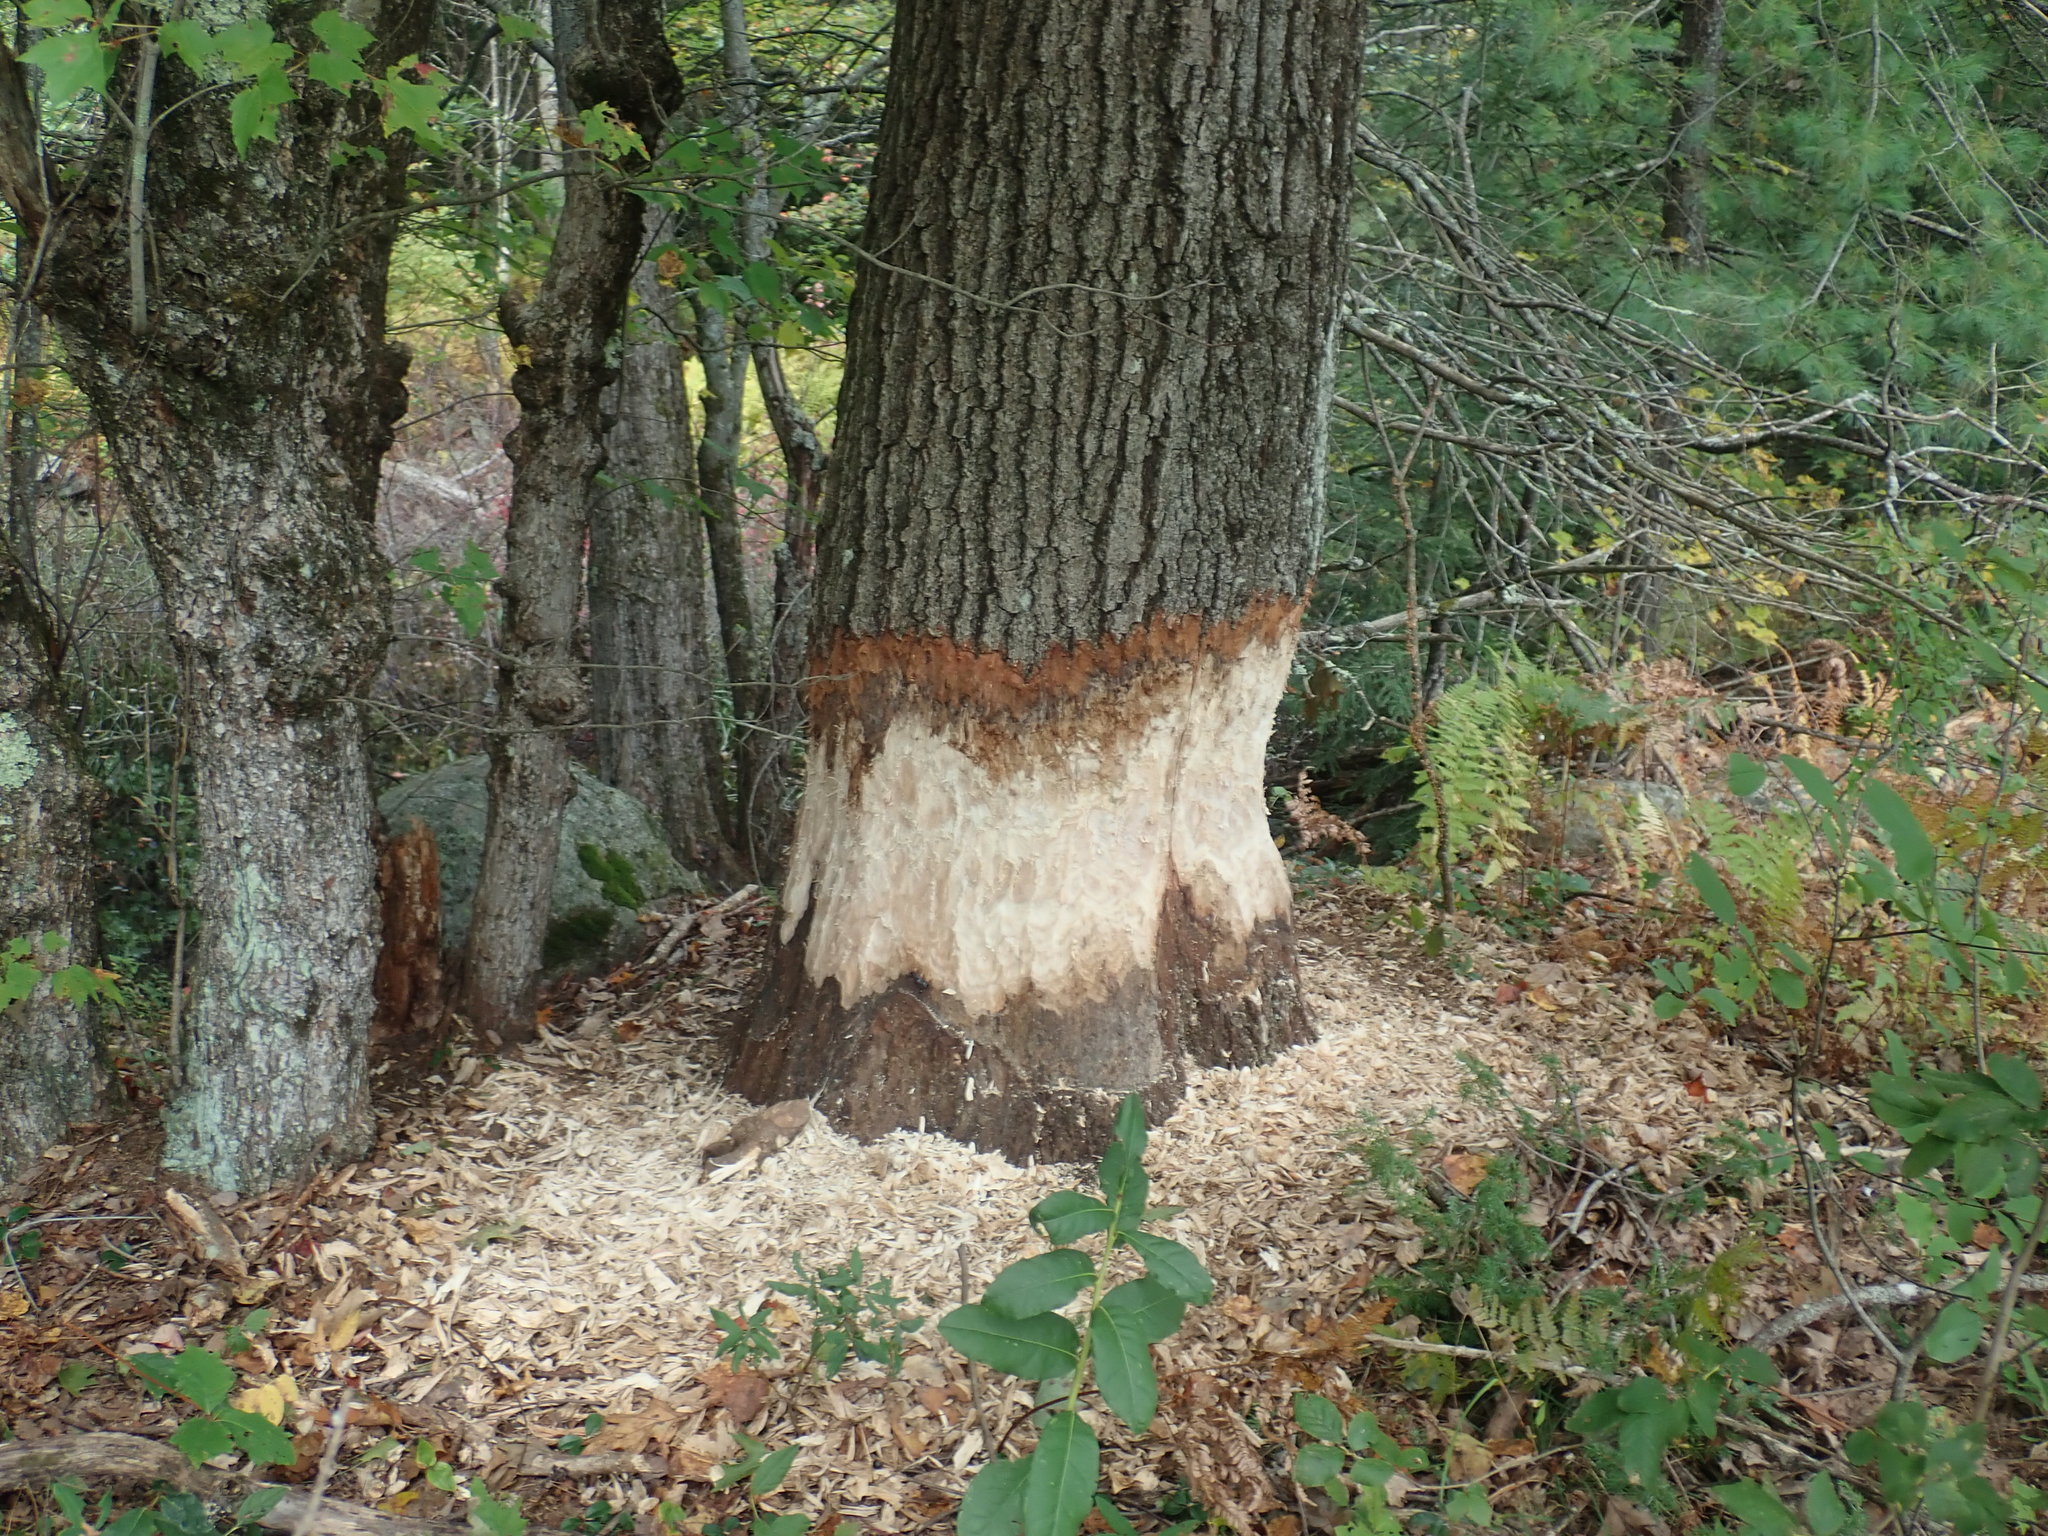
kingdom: Animalia
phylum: Chordata
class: Mammalia
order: Rodentia
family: Castoridae
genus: Castor
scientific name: Castor canadensis
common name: American beaver
